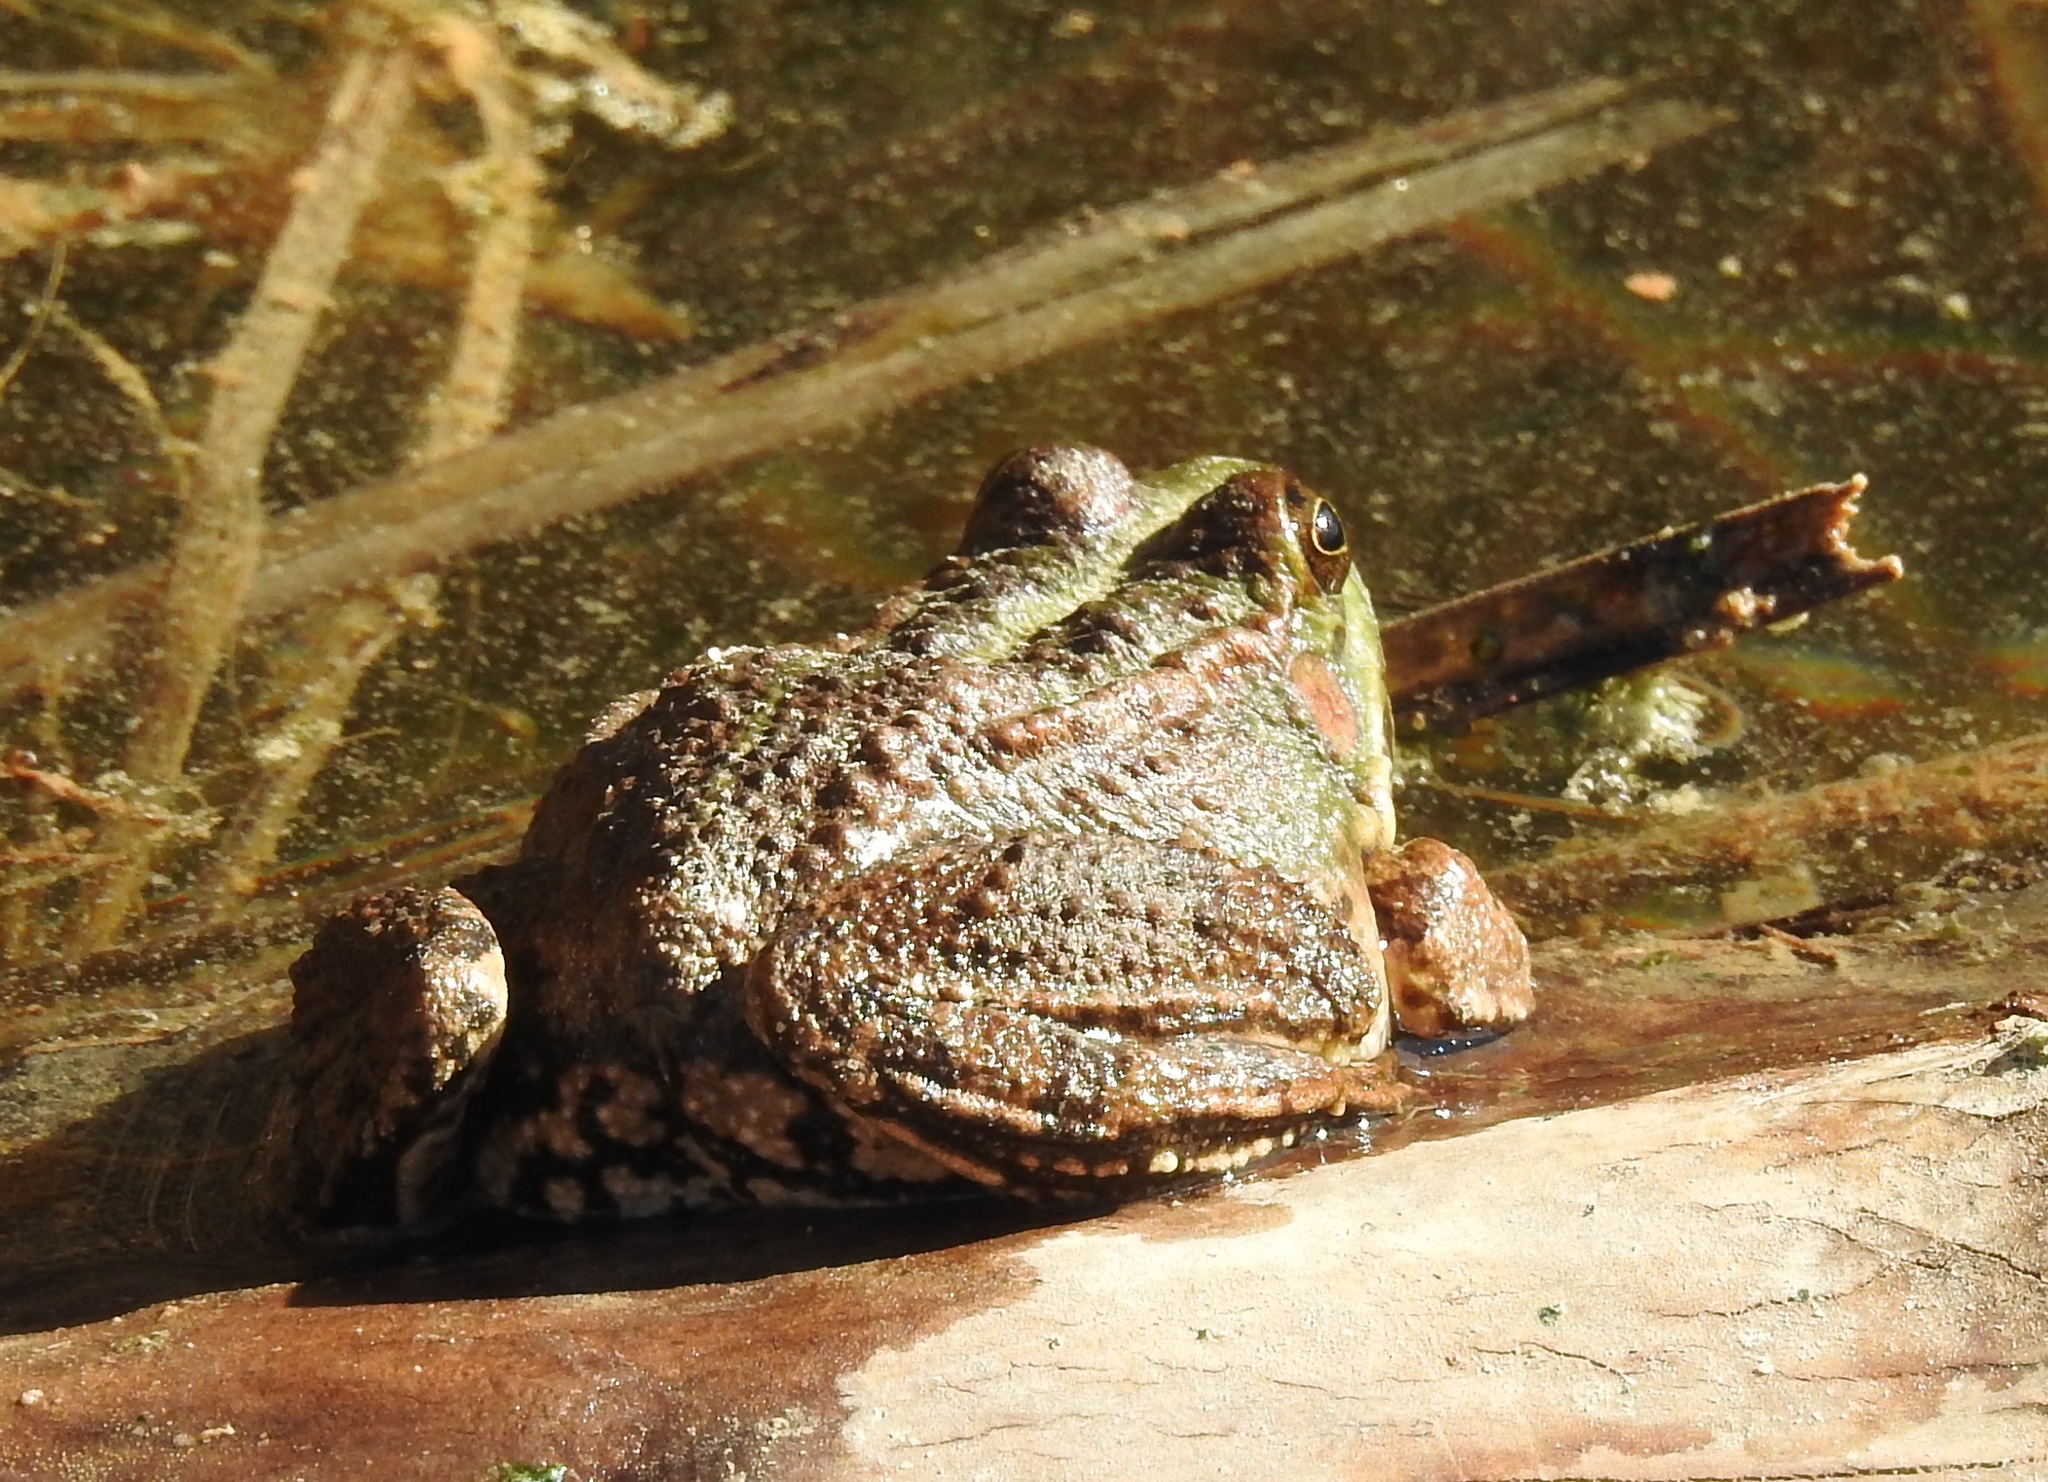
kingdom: Animalia
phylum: Chordata
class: Amphibia
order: Anura
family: Ranidae
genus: Pelophylax
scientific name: Pelophylax saharicus
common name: Sahara frog
